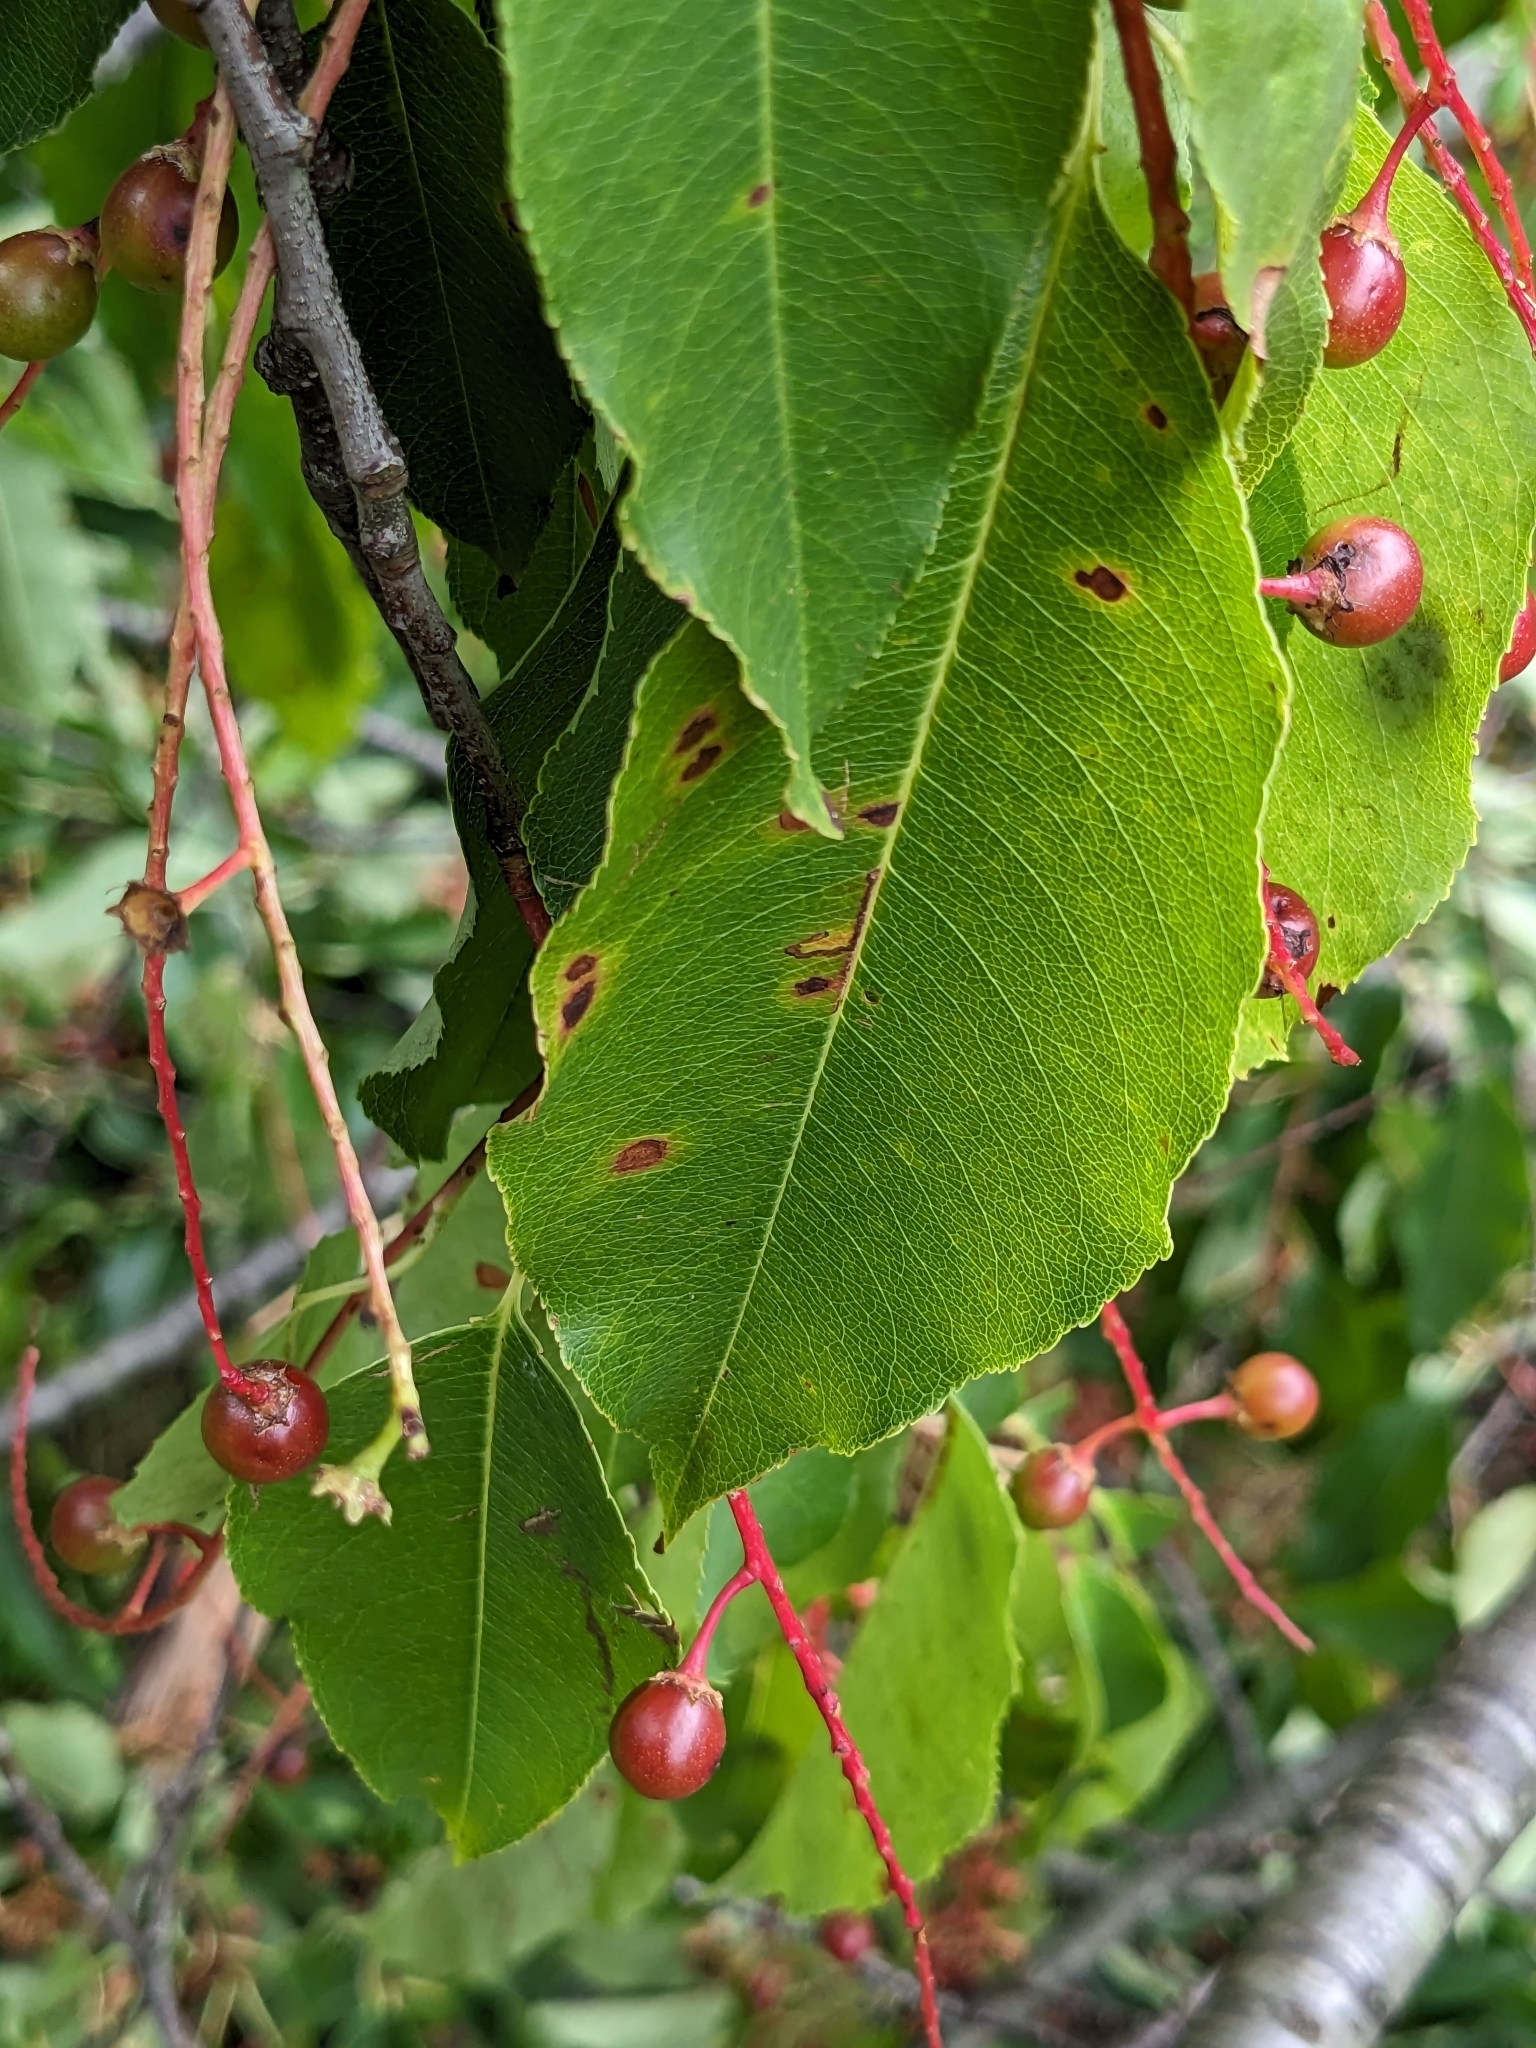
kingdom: Fungi
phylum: Ascomycota
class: Leotiomycetes
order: Helotiales
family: Drepanopezizaceae
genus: Blumeriella
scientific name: Blumeriella jaapii
